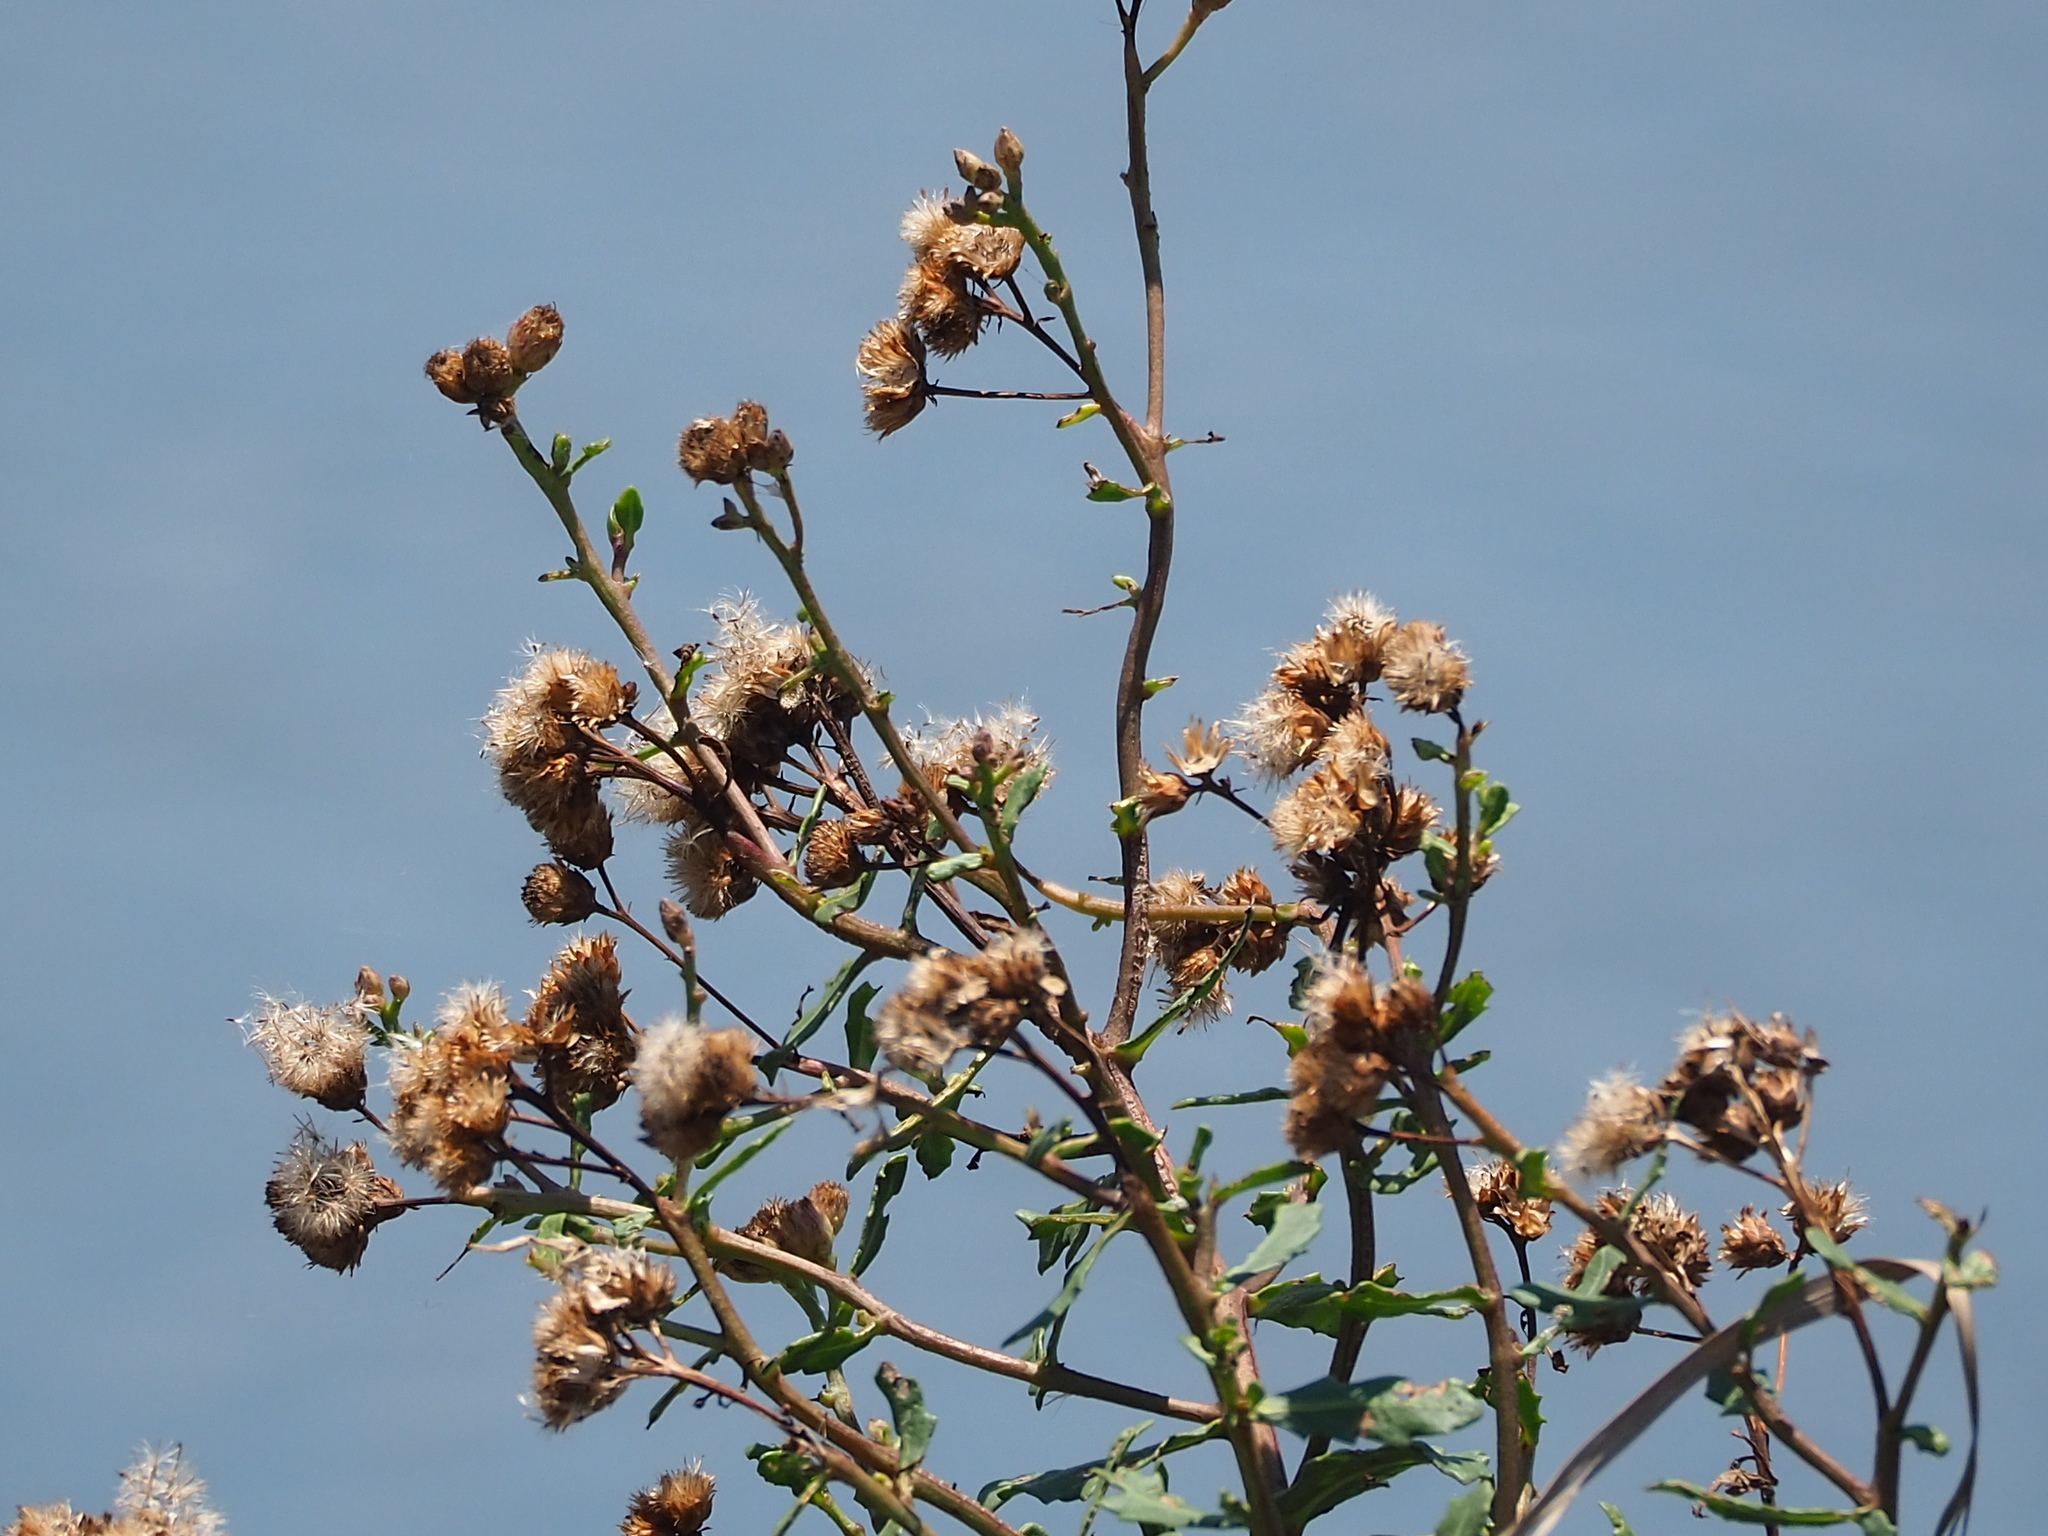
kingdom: Plantae
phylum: Tracheophyta
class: Magnoliopsida
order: Asterales
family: Asteraceae
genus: Pluchea
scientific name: Pluchea pteropoda
